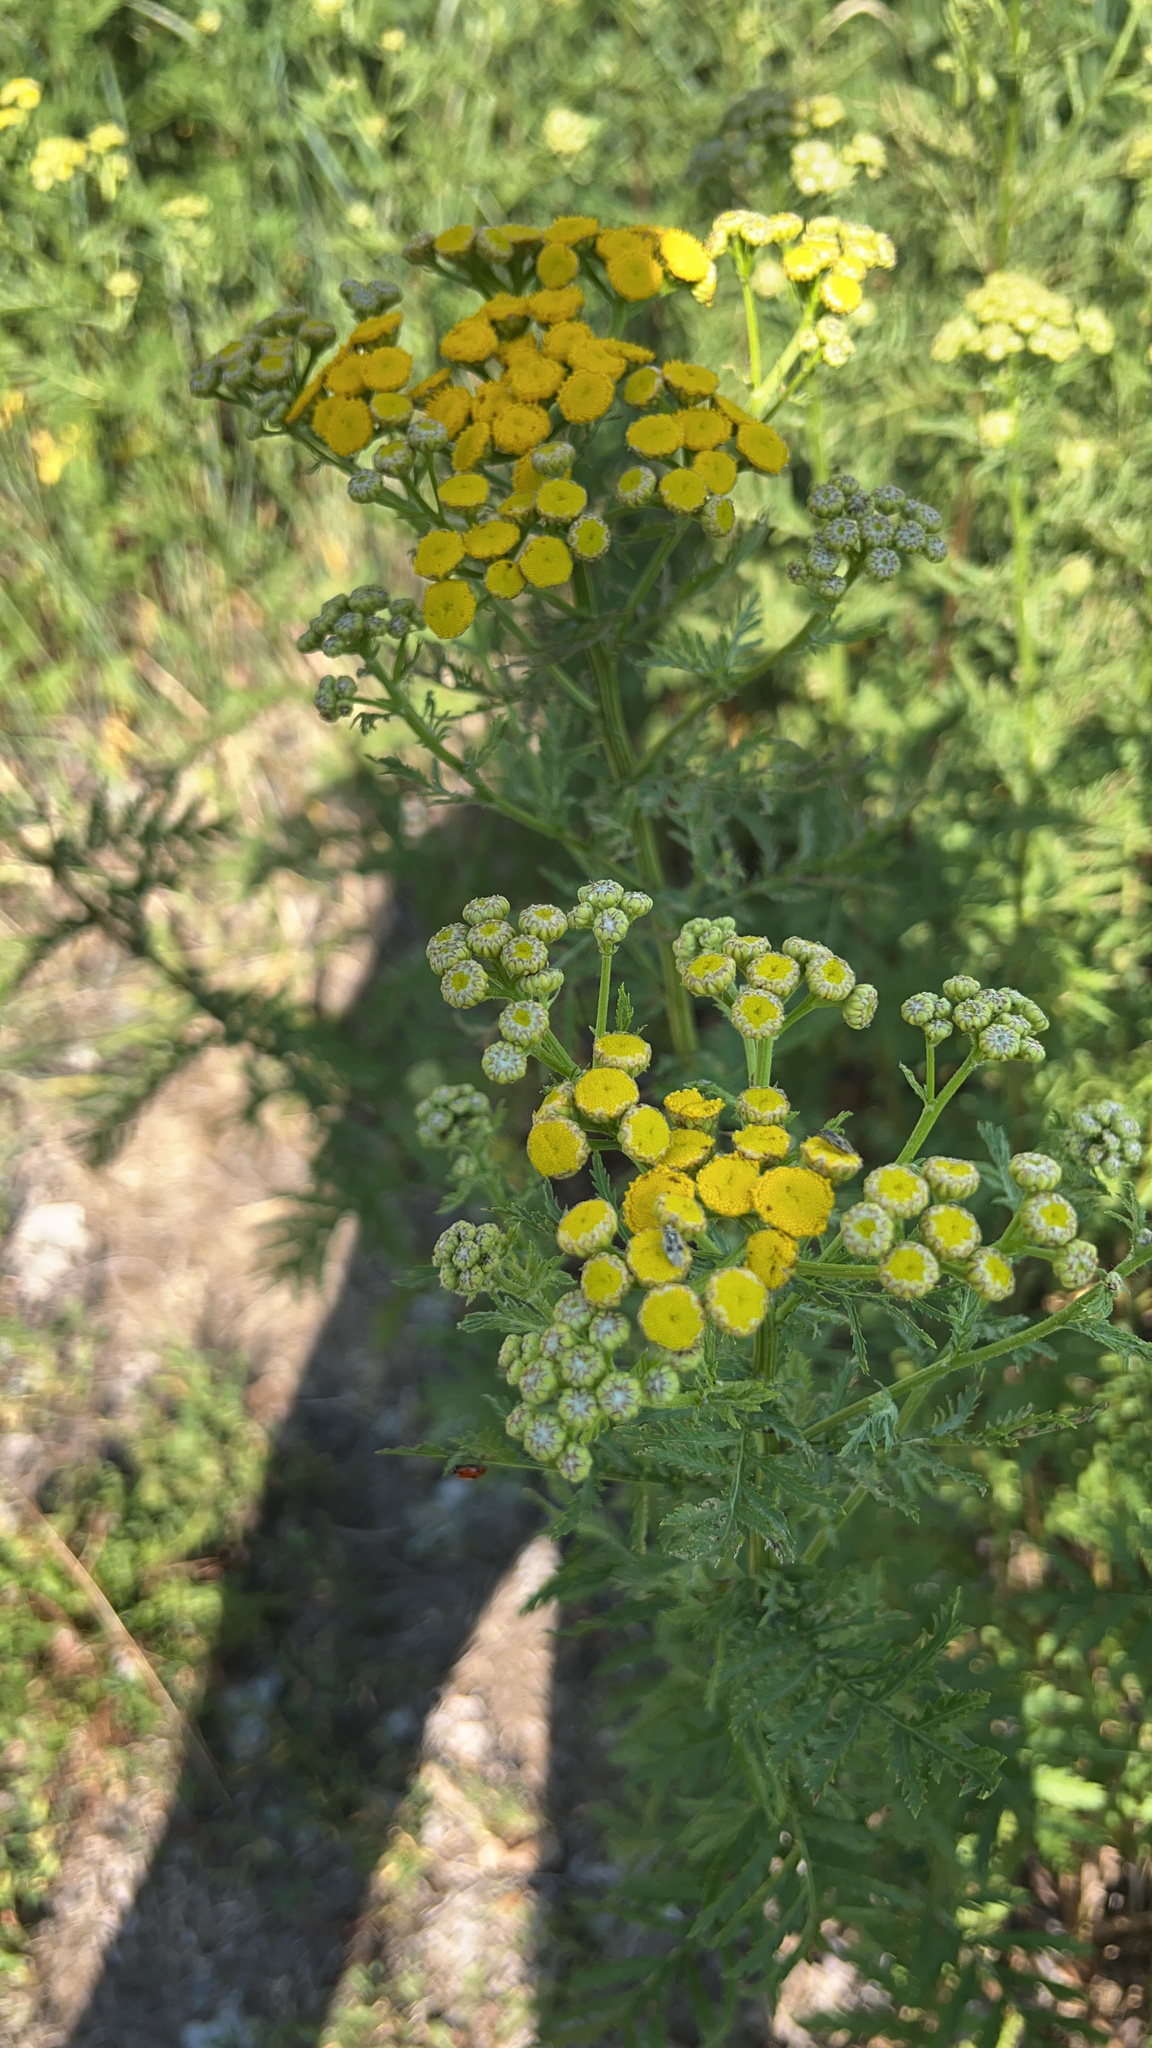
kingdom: Plantae
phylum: Tracheophyta
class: Magnoliopsida
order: Asterales
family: Asteraceae
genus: Tanacetum
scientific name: Tanacetum vulgare
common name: Common tansy
